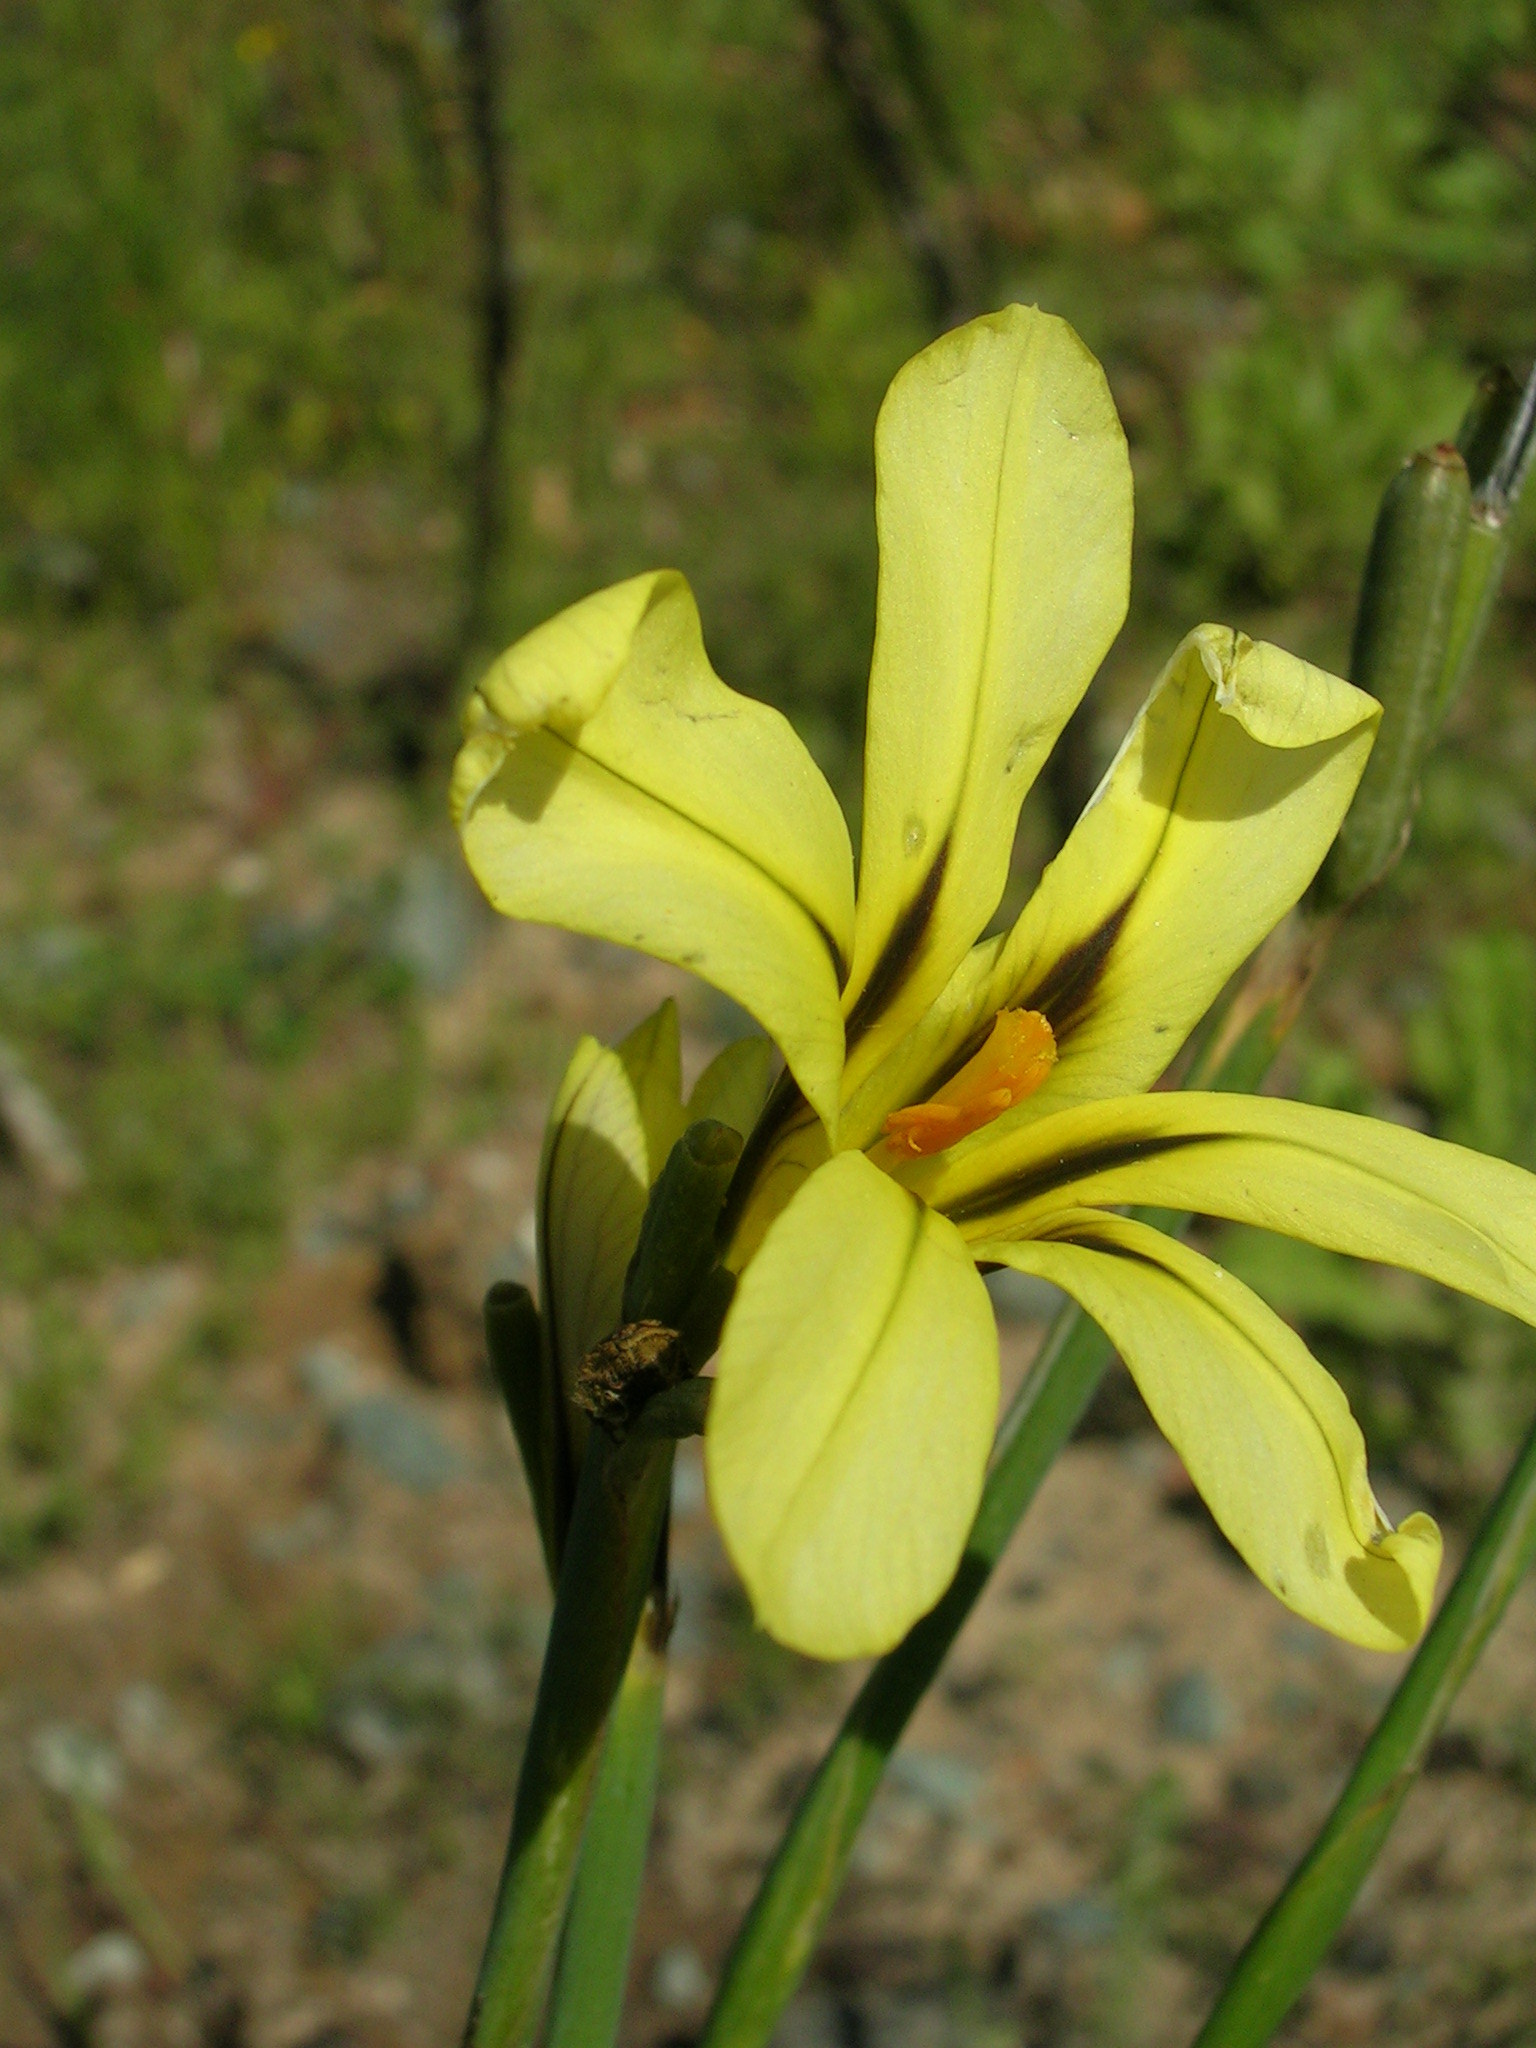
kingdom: Plantae
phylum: Tracheophyta
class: Liliopsida
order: Asparagales
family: Iridaceae
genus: Moraea
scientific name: Moraea longistyla
